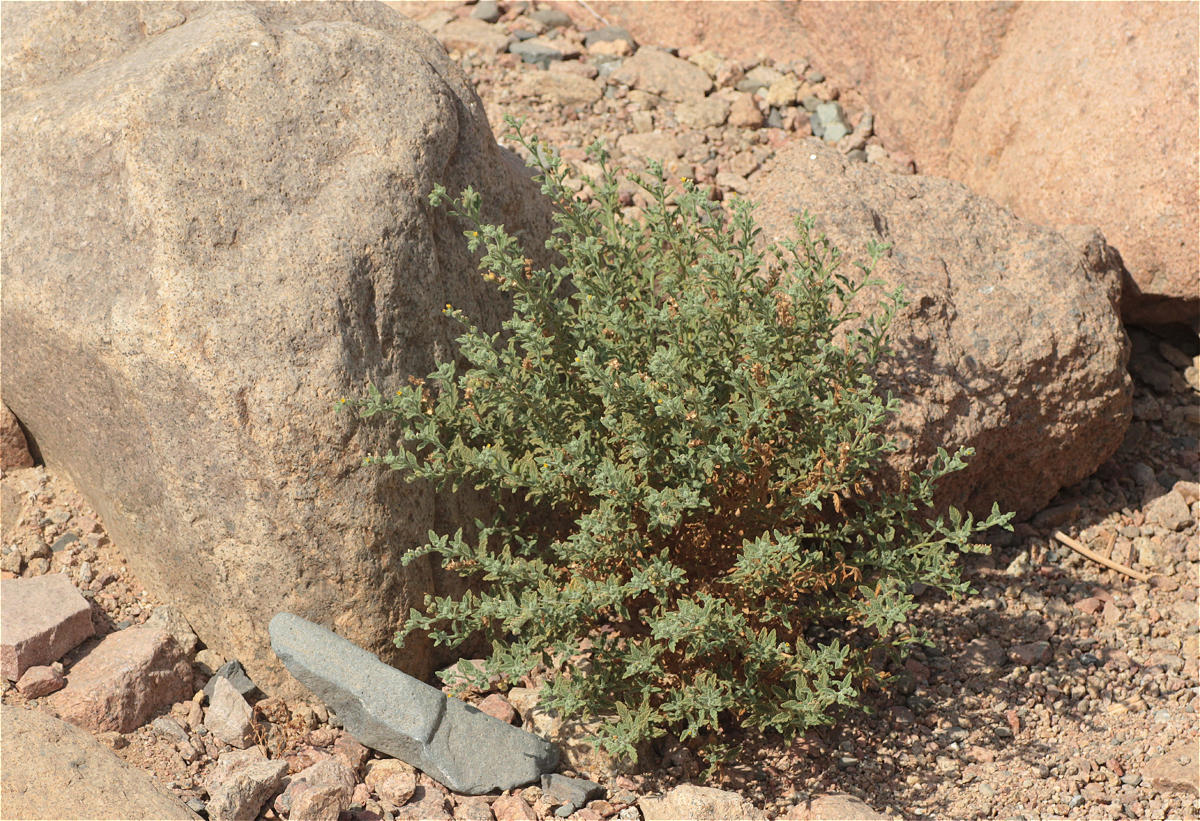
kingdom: Plantae
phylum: Tracheophyta
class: Magnoliopsida
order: Boraginales
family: Heliotropiaceae
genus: Heliotropium
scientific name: Heliotropium arbainense
